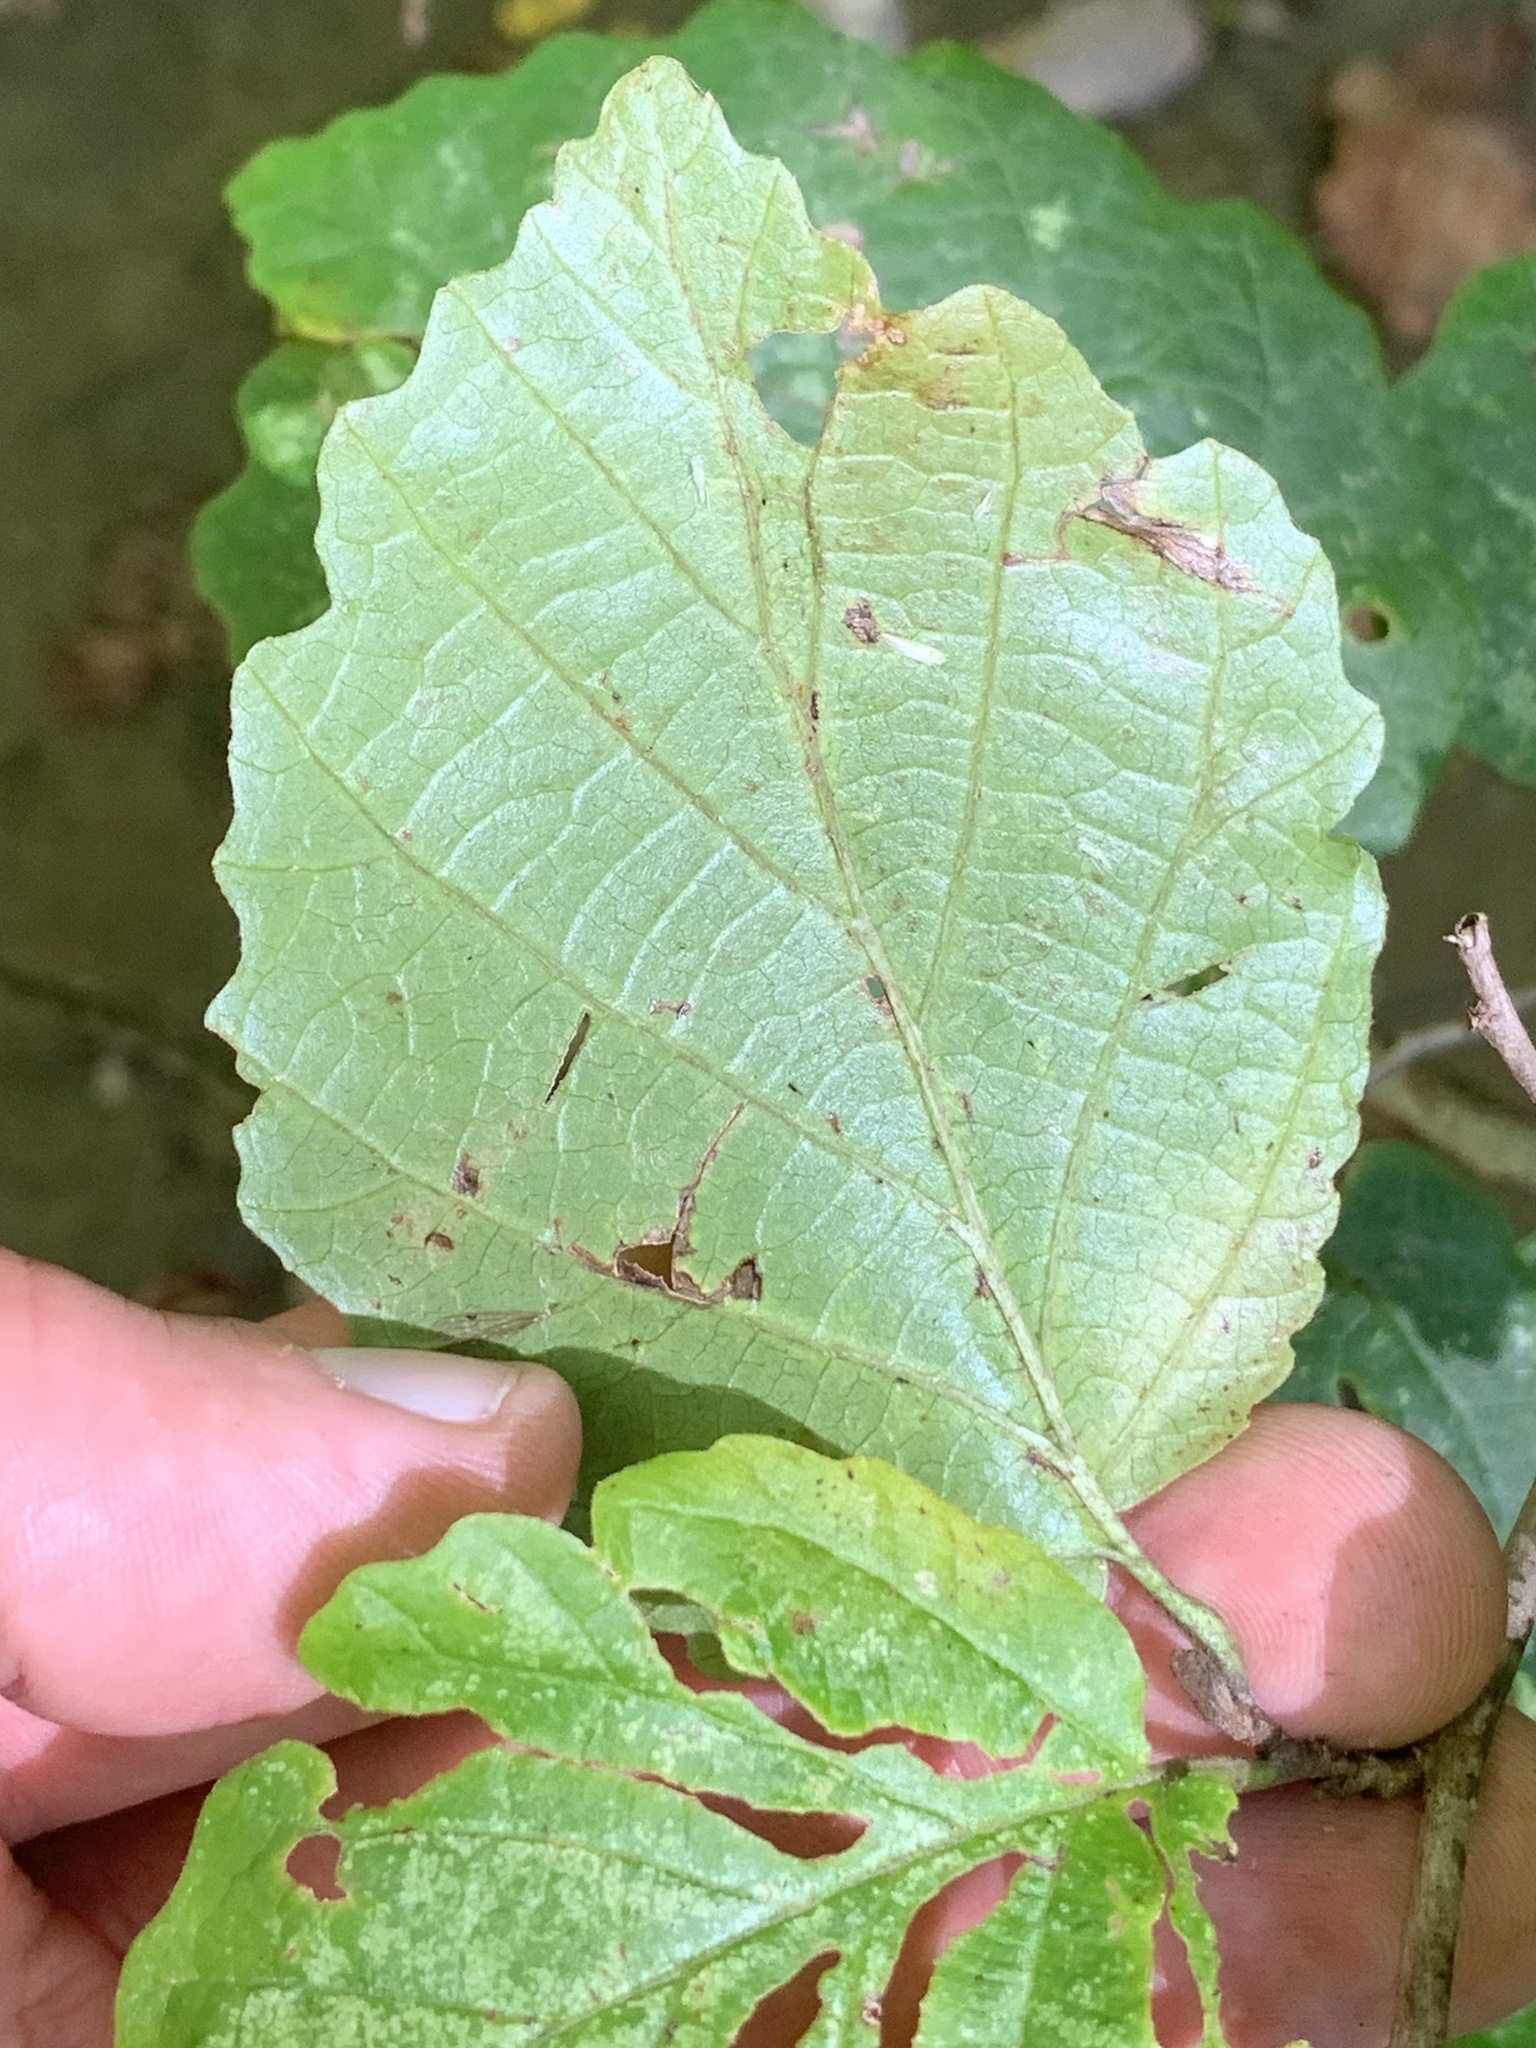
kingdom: Plantae
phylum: Tracheophyta
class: Magnoliopsida
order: Saxifragales
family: Hamamelidaceae
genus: Hamamelis
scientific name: Hamamelis virginiana
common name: Witch-hazel
